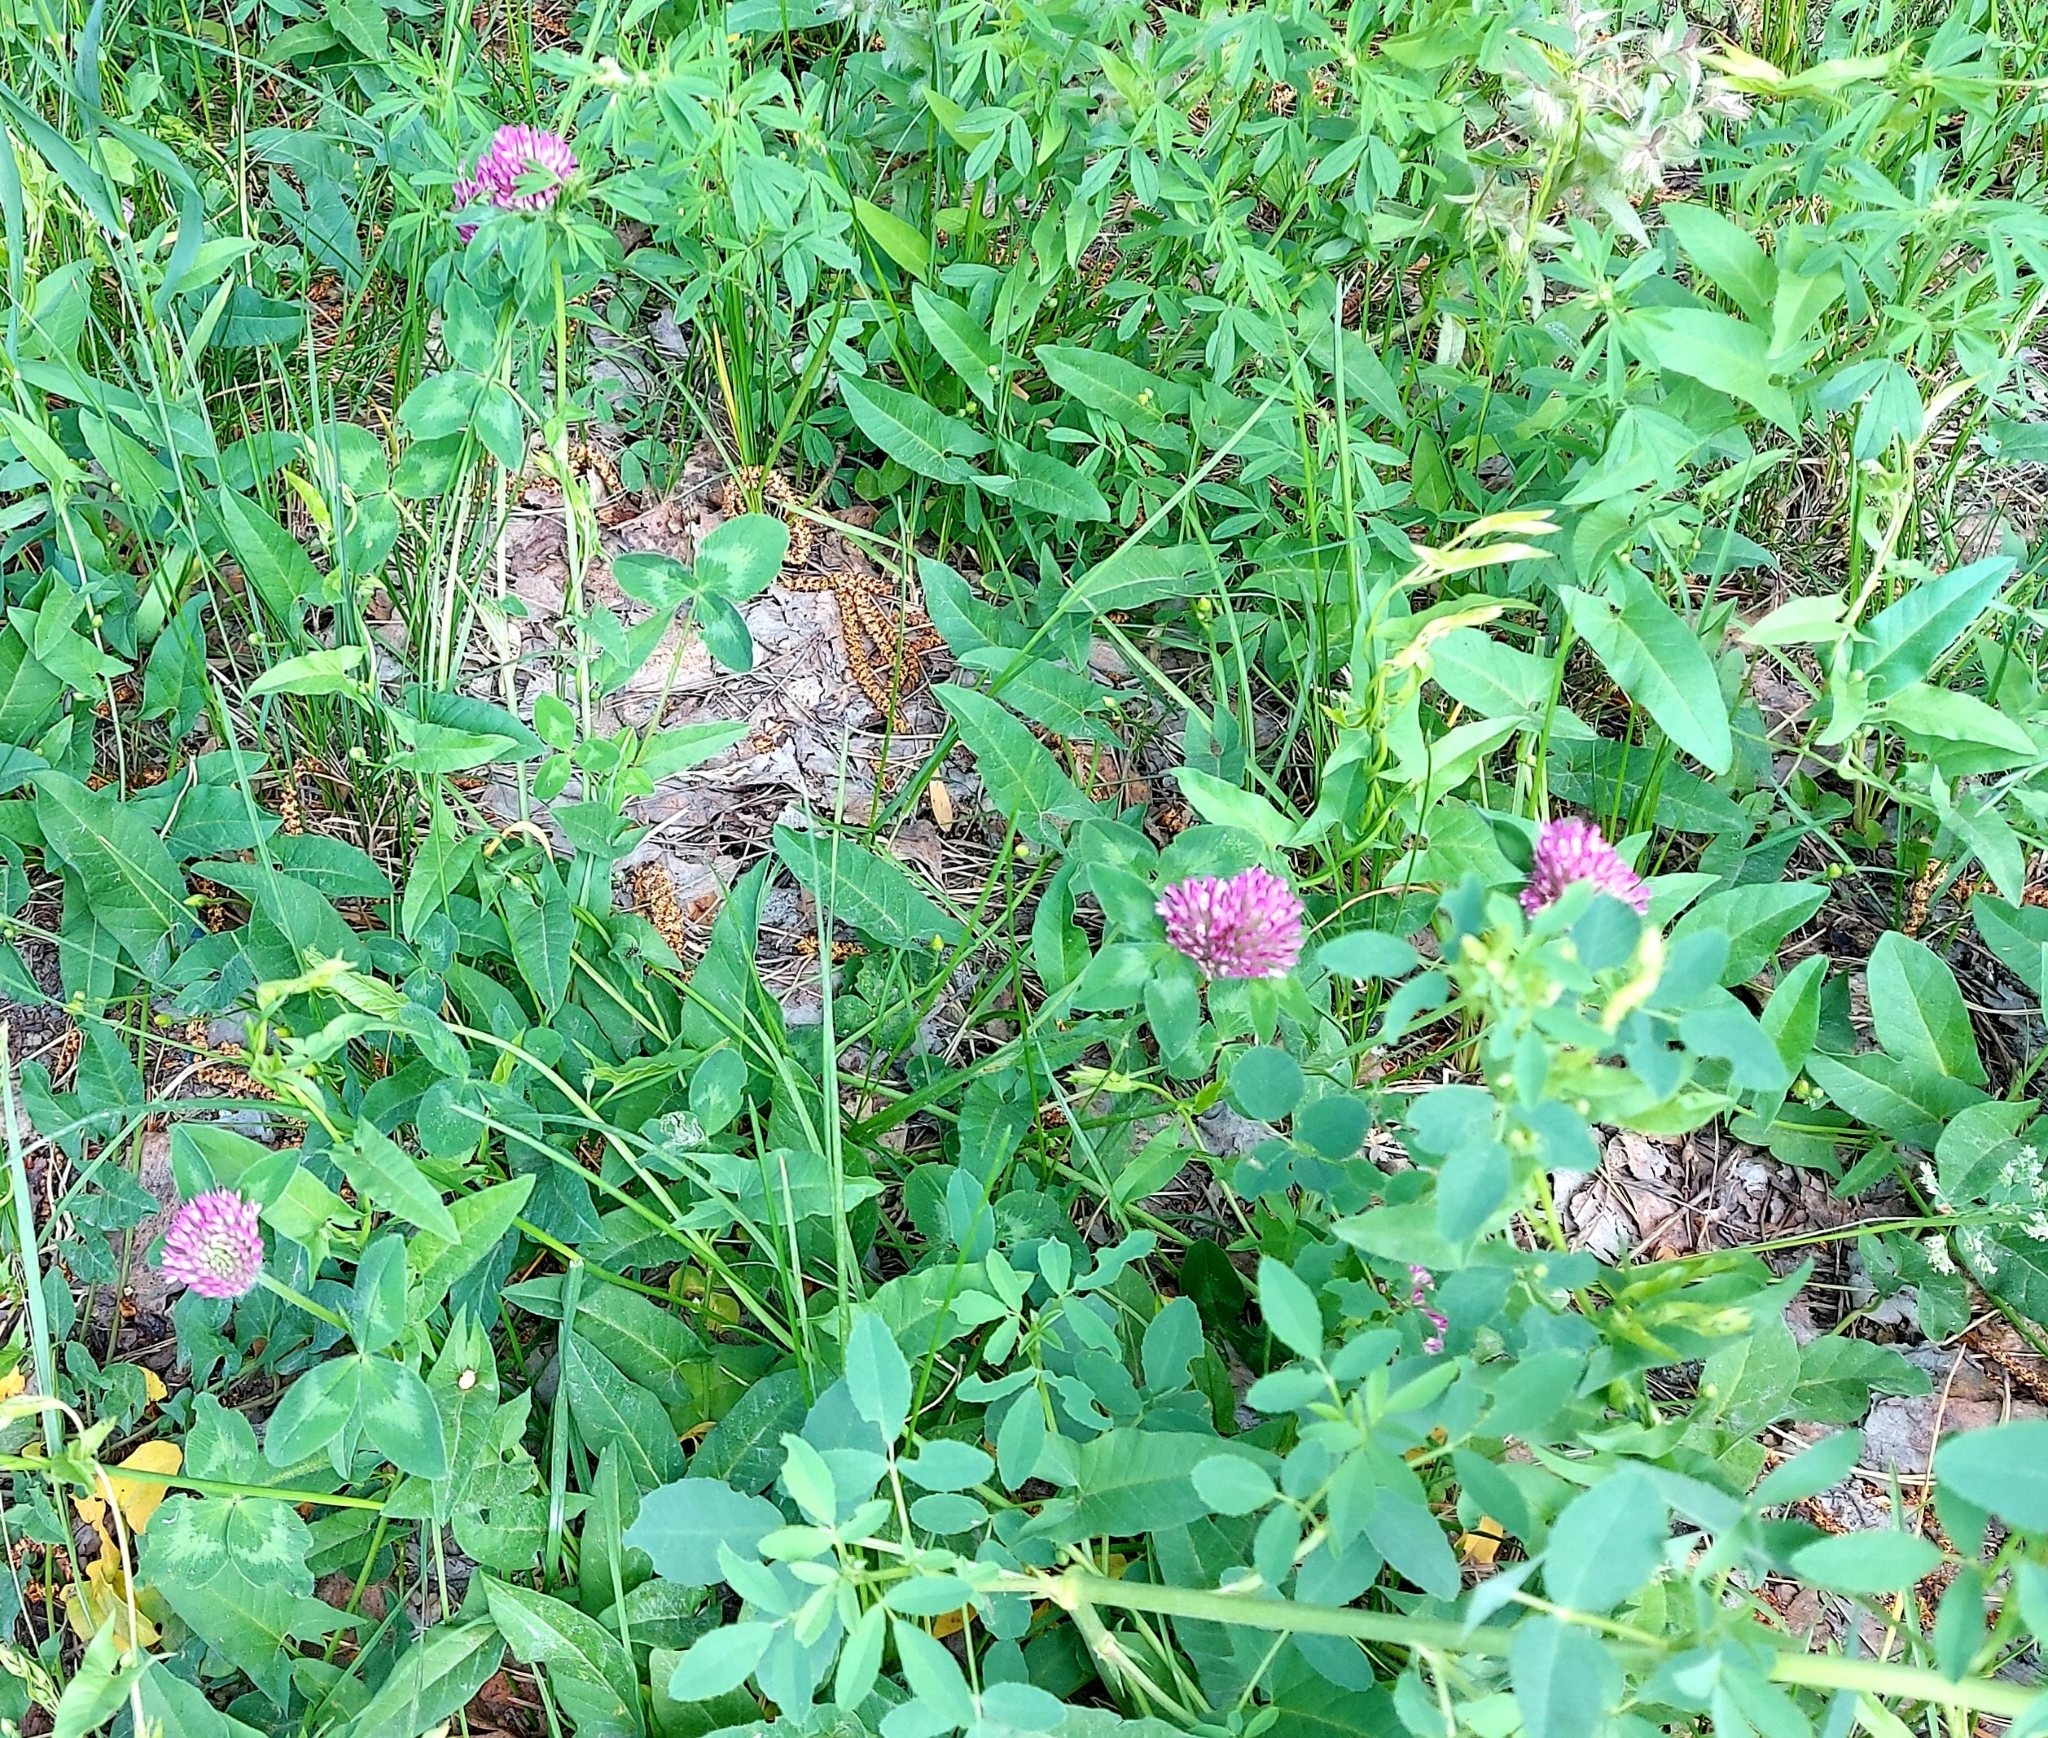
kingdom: Plantae
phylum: Tracheophyta
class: Magnoliopsida
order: Fabales
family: Fabaceae
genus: Trifolium
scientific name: Trifolium pratense
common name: Red clover
